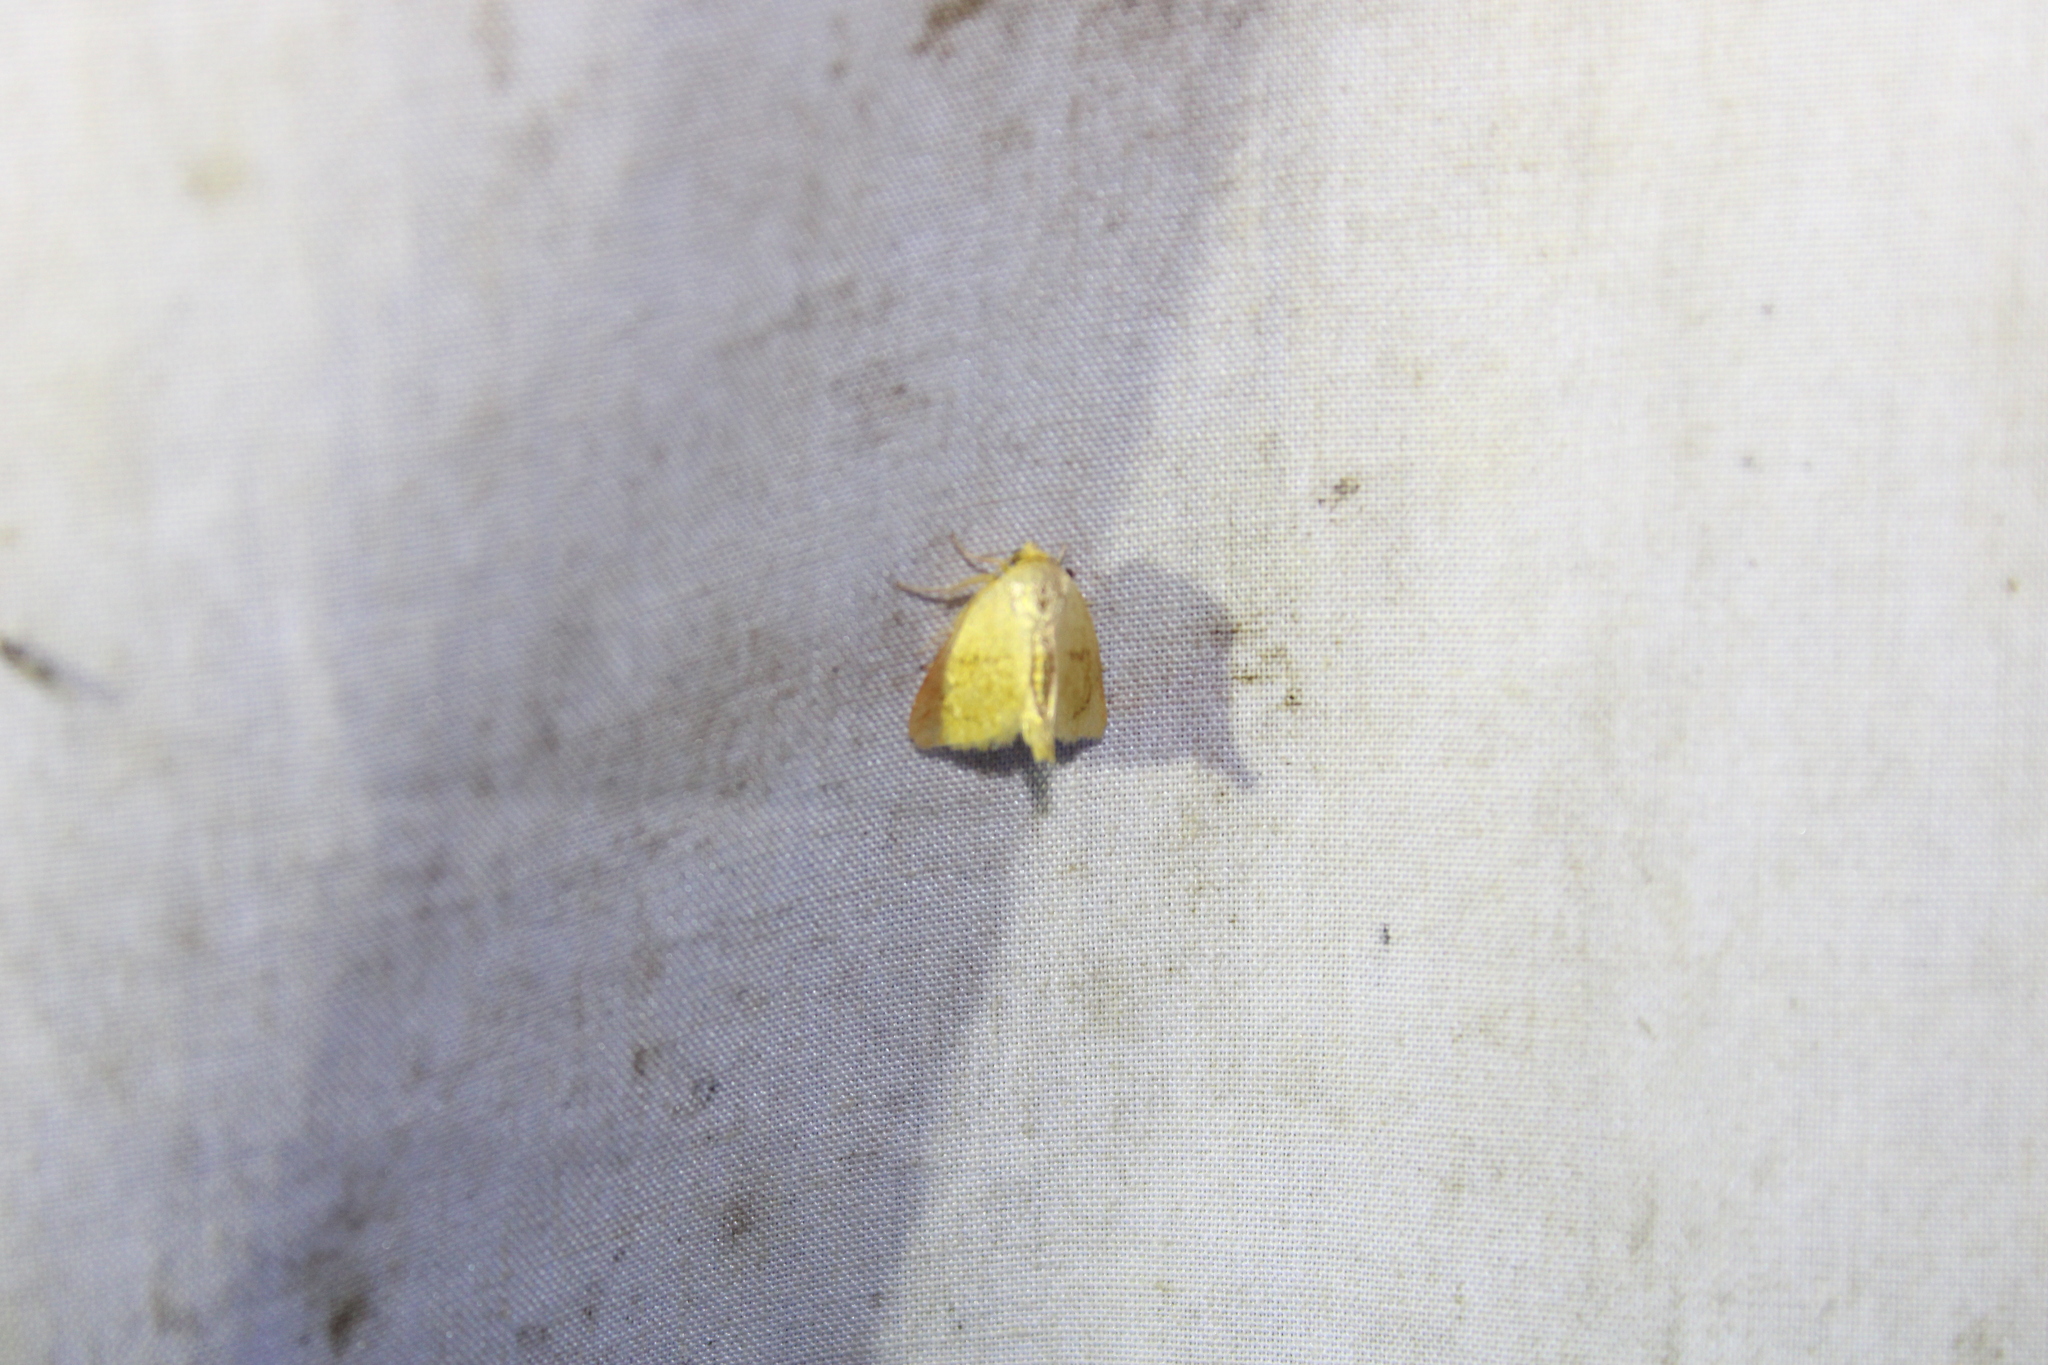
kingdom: Animalia
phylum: Arthropoda
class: Insecta
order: Lepidoptera
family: Limacodidae
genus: Tortricidia
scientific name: Tortricidia pallida
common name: Red-crossed button slug moth
